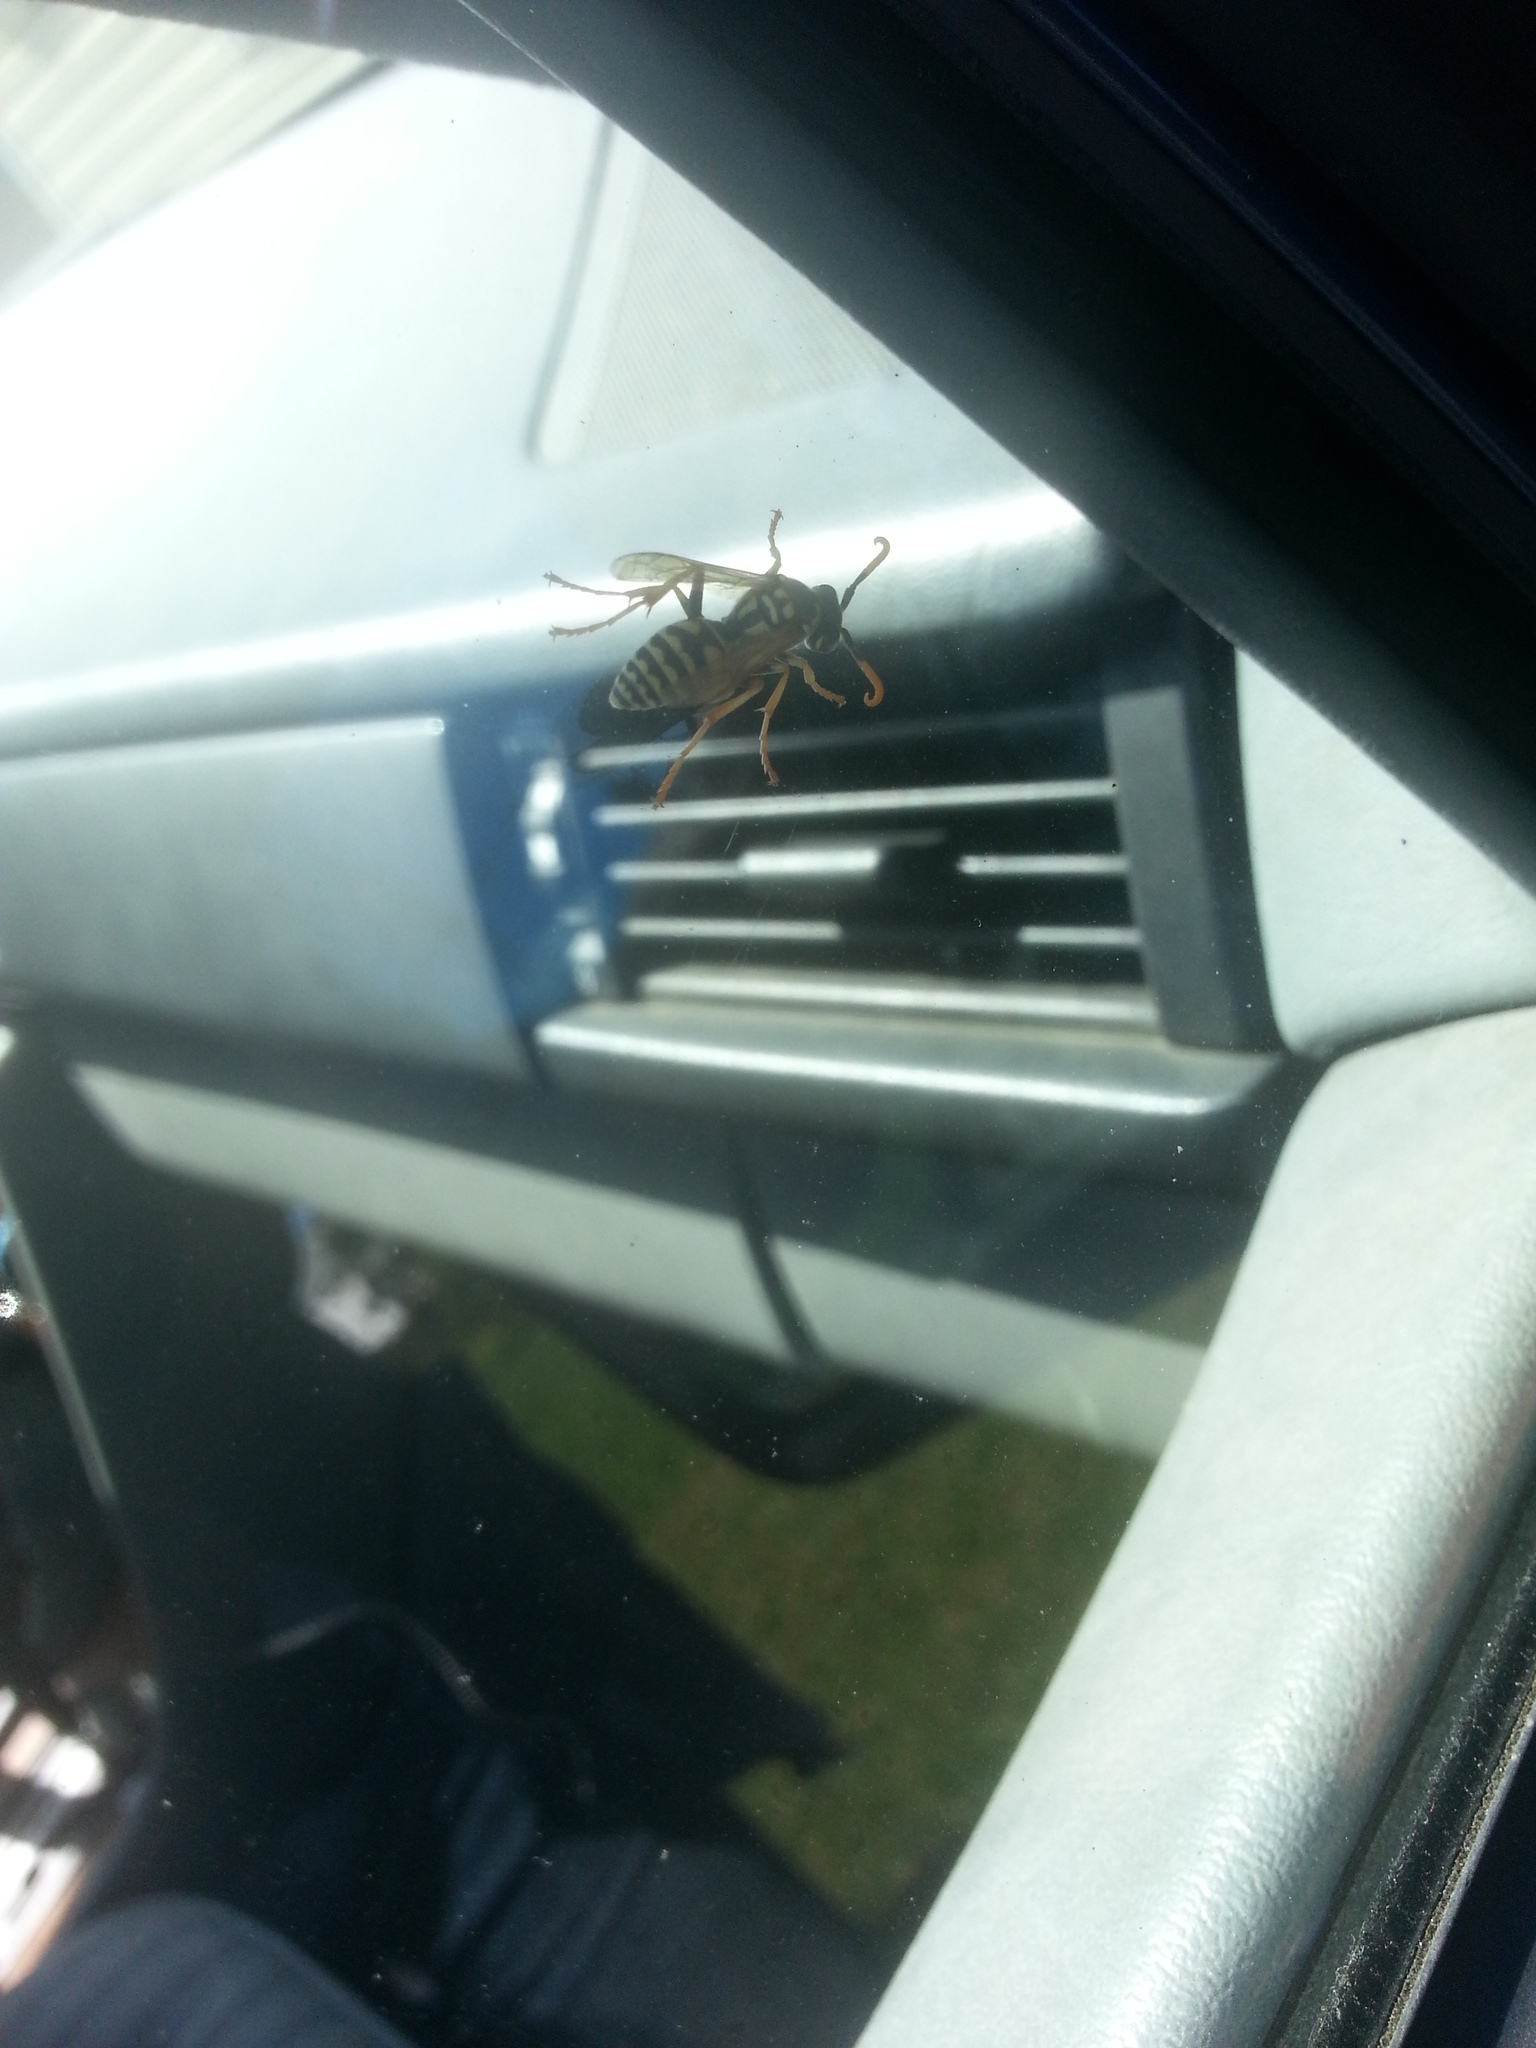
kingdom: Animalia
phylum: Arthropoda
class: Insecta
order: Hymenoptera
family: Eumenidae
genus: Polistes
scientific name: Polistes dominula
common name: Paper wasp
